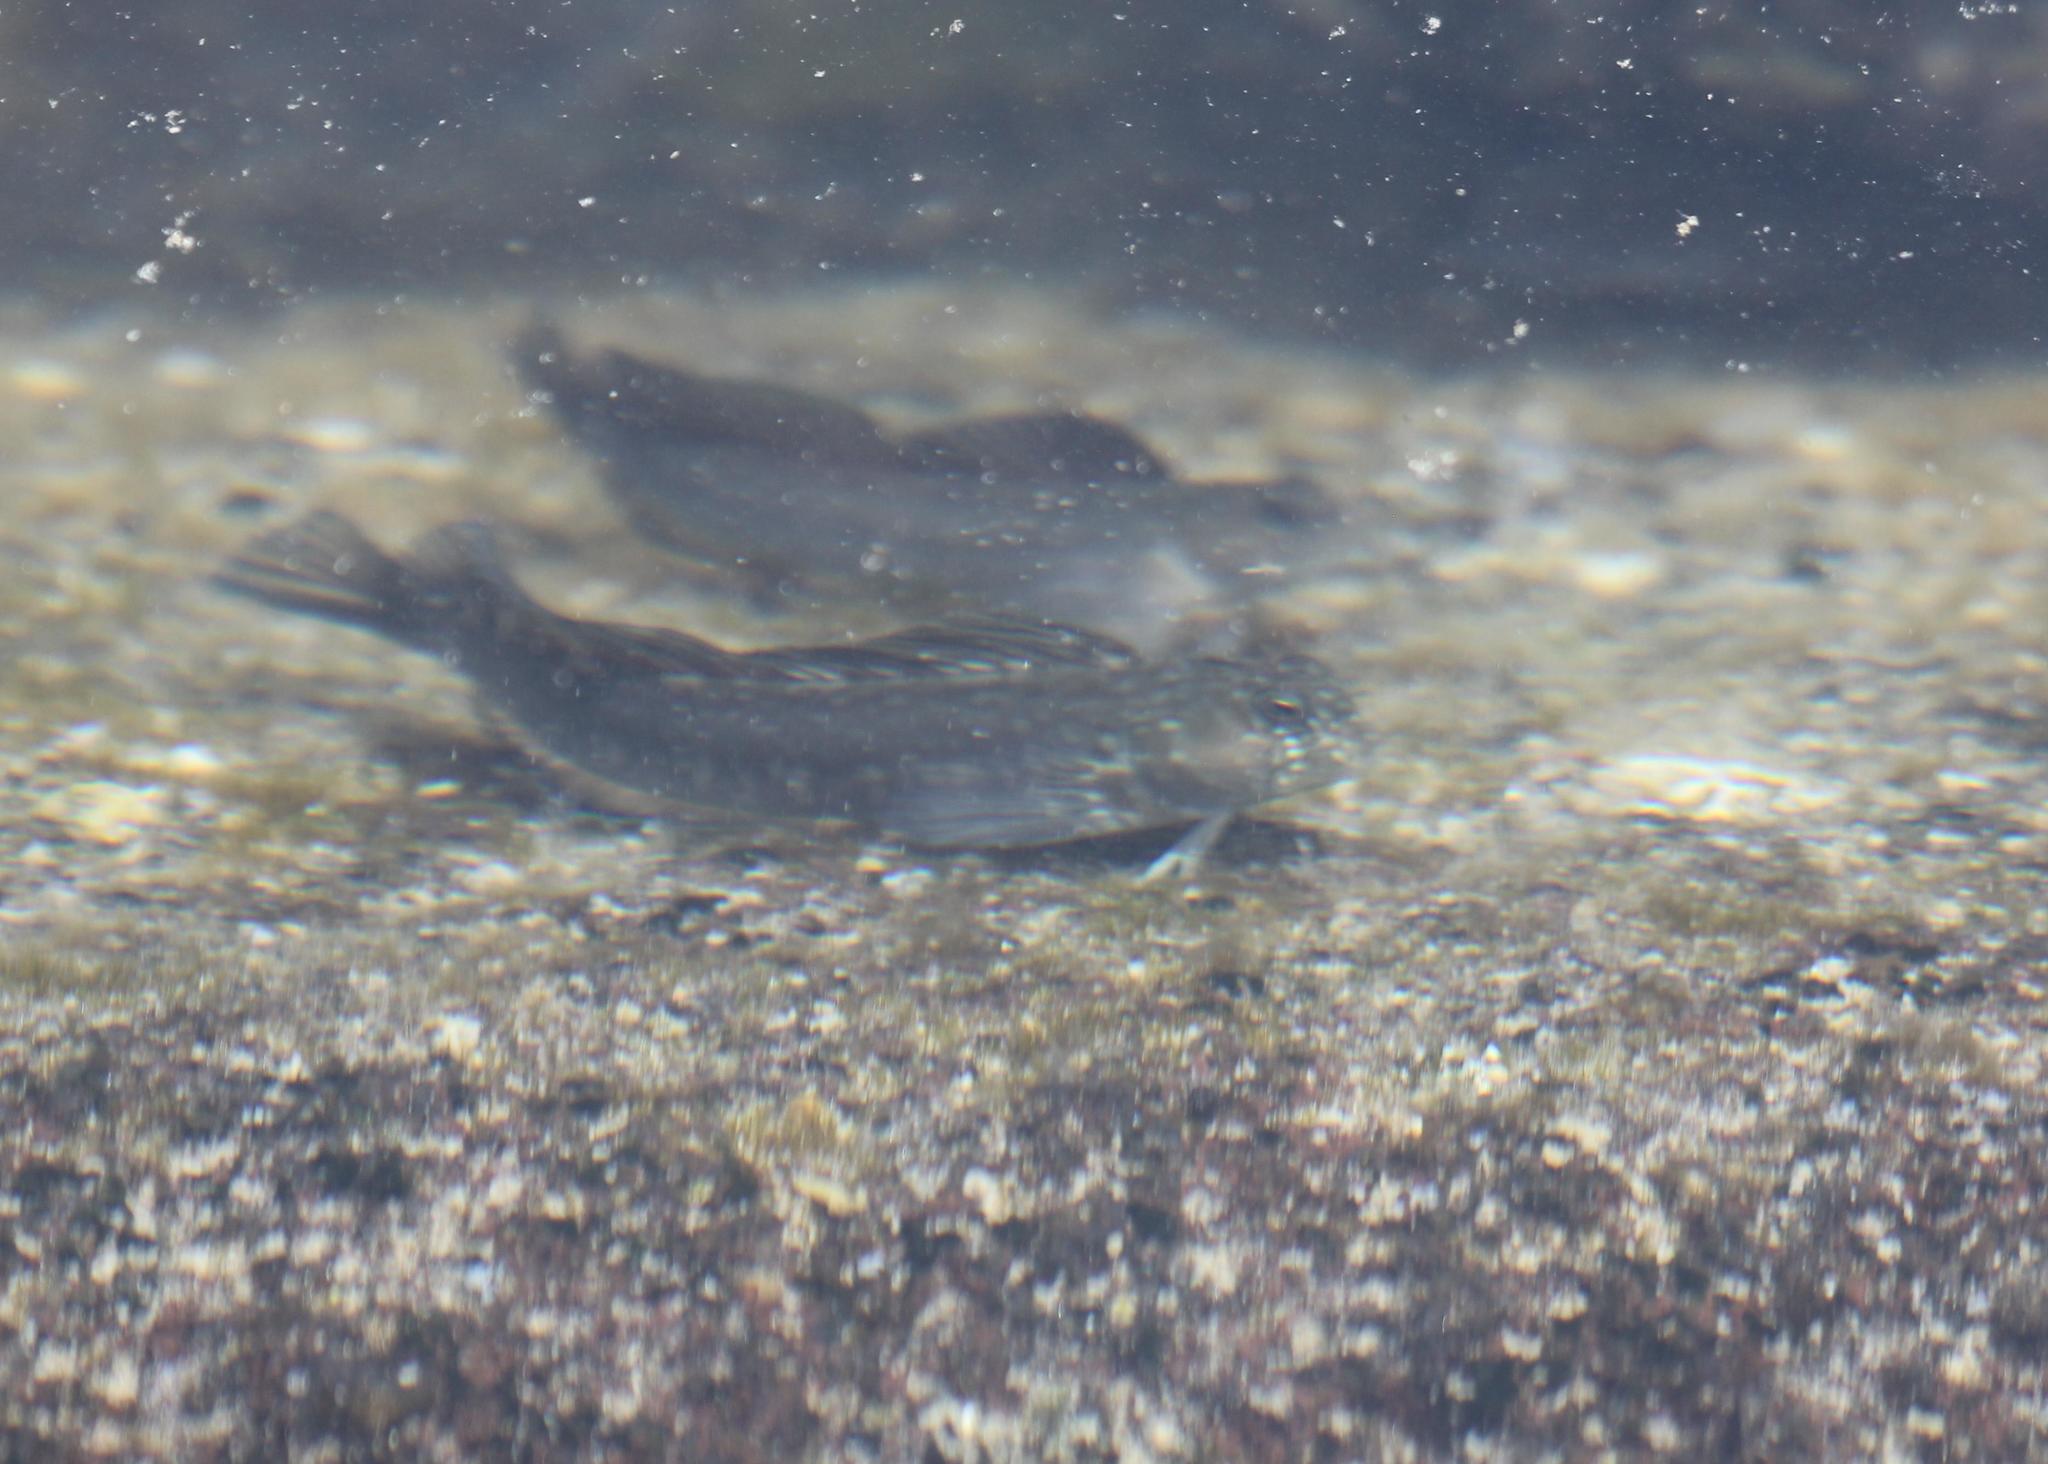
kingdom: Animalia
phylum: Chordata
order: Perciformes
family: Blenniidae
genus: Istiblennius
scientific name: Istiblennius zebra
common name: Zebra blenny
